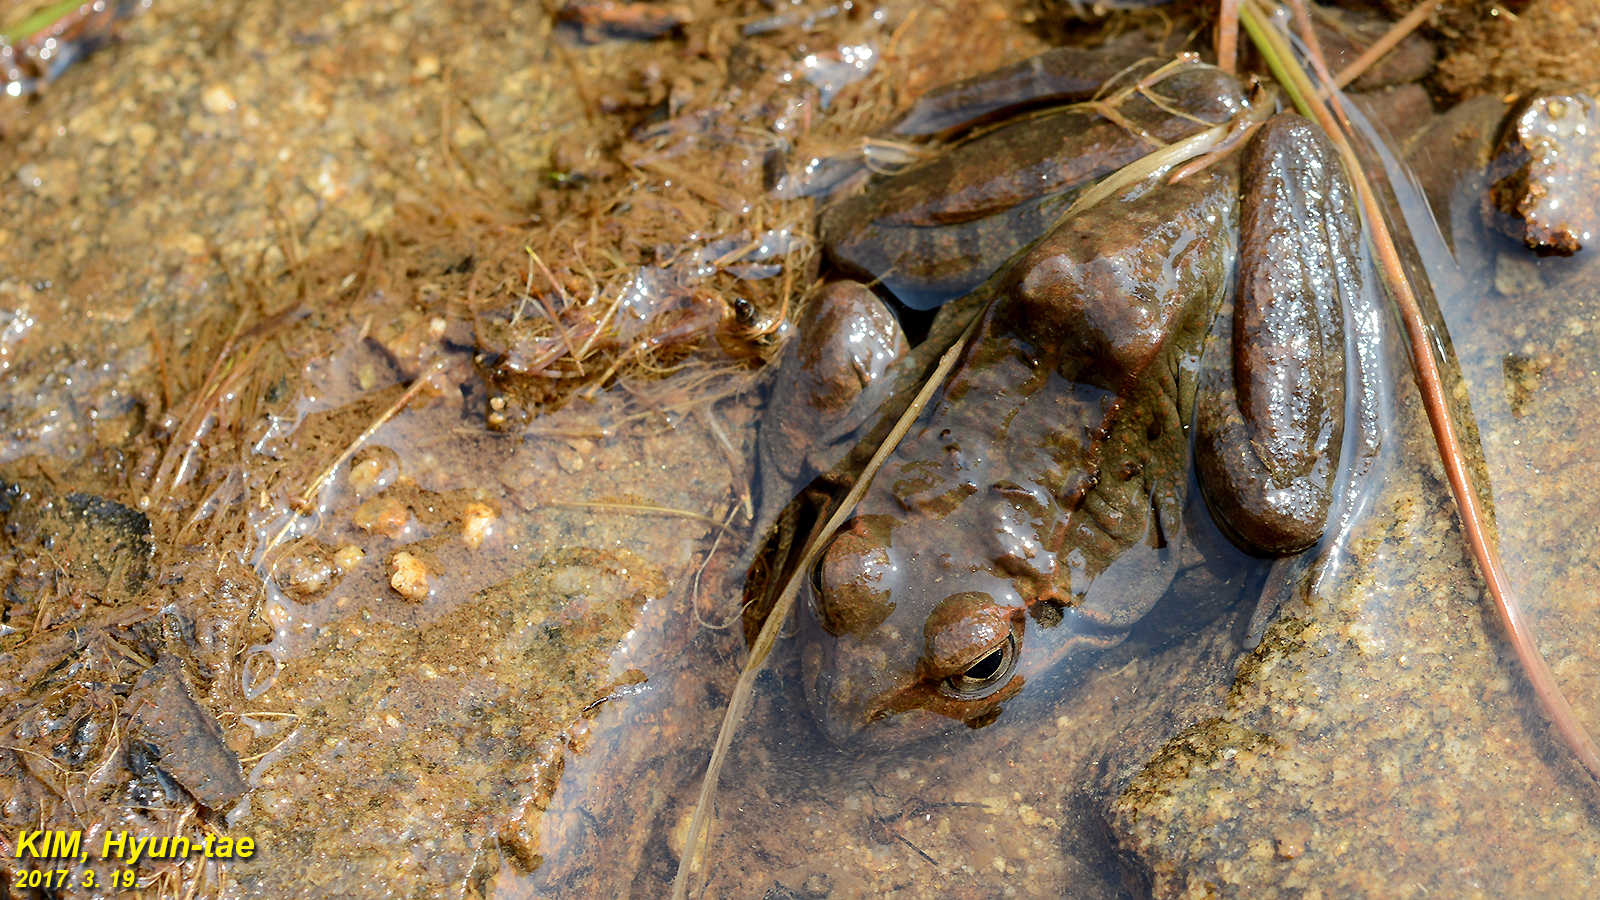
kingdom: Animalia
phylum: Chordata
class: Amphibia
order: Anura
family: Ranidae
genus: Rana
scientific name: Rana uenoi
